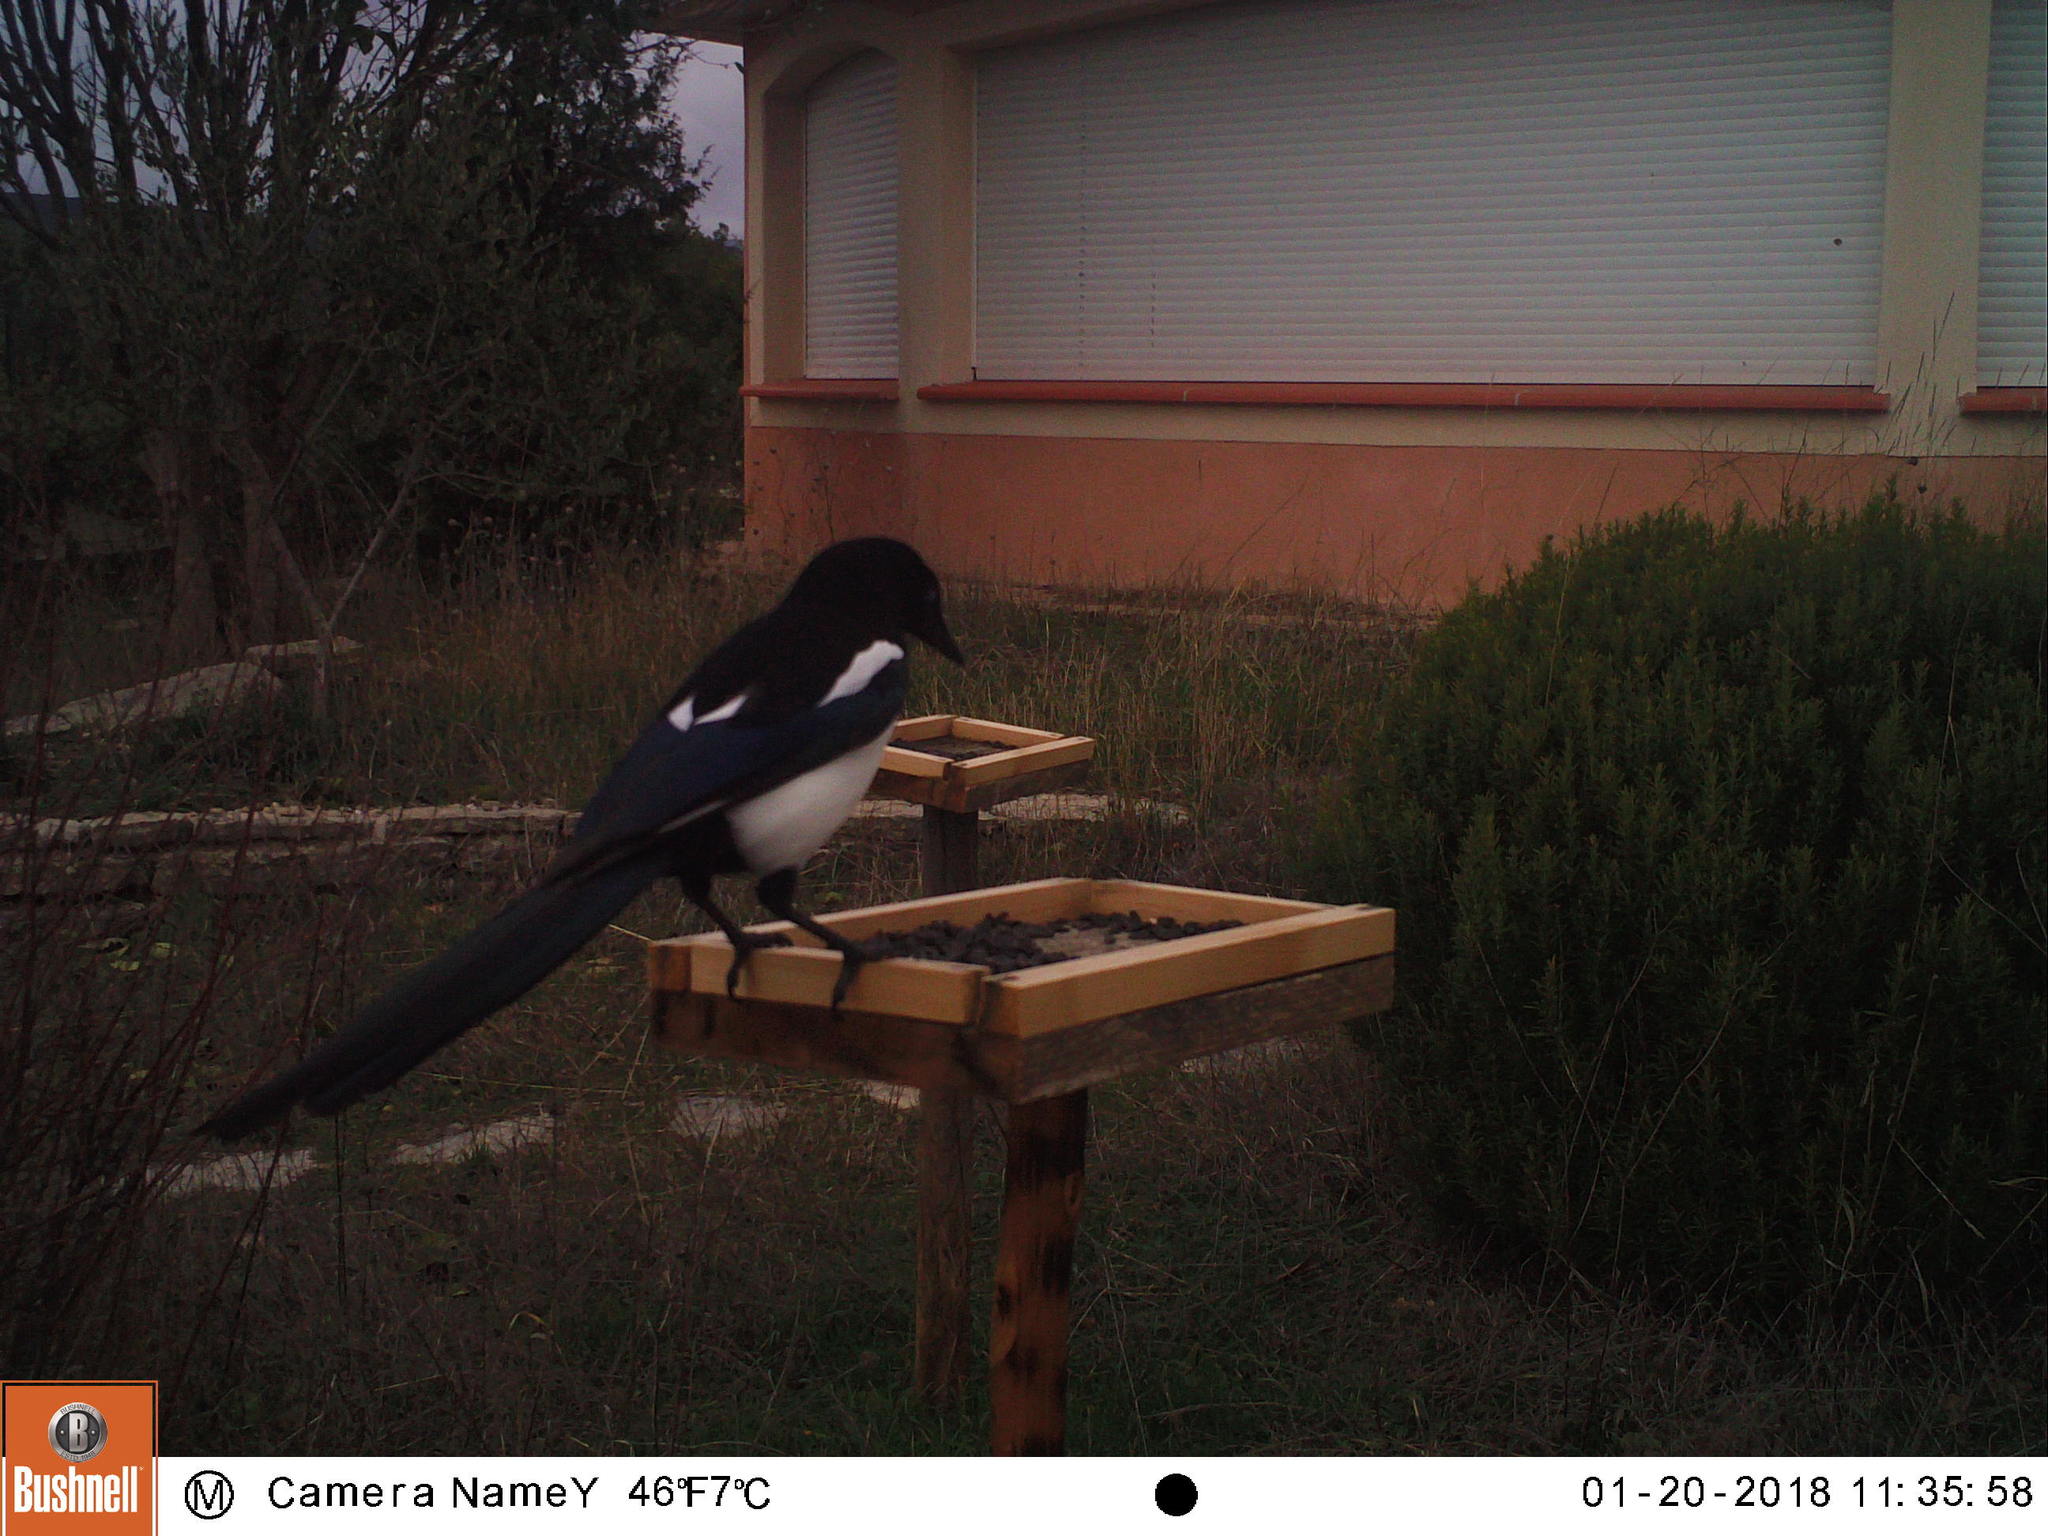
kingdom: Animalia
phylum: Chordata
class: Aves
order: Passeriformes
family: Corvidae
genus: Pica
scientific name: Pica pica
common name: Eurasian magpie
